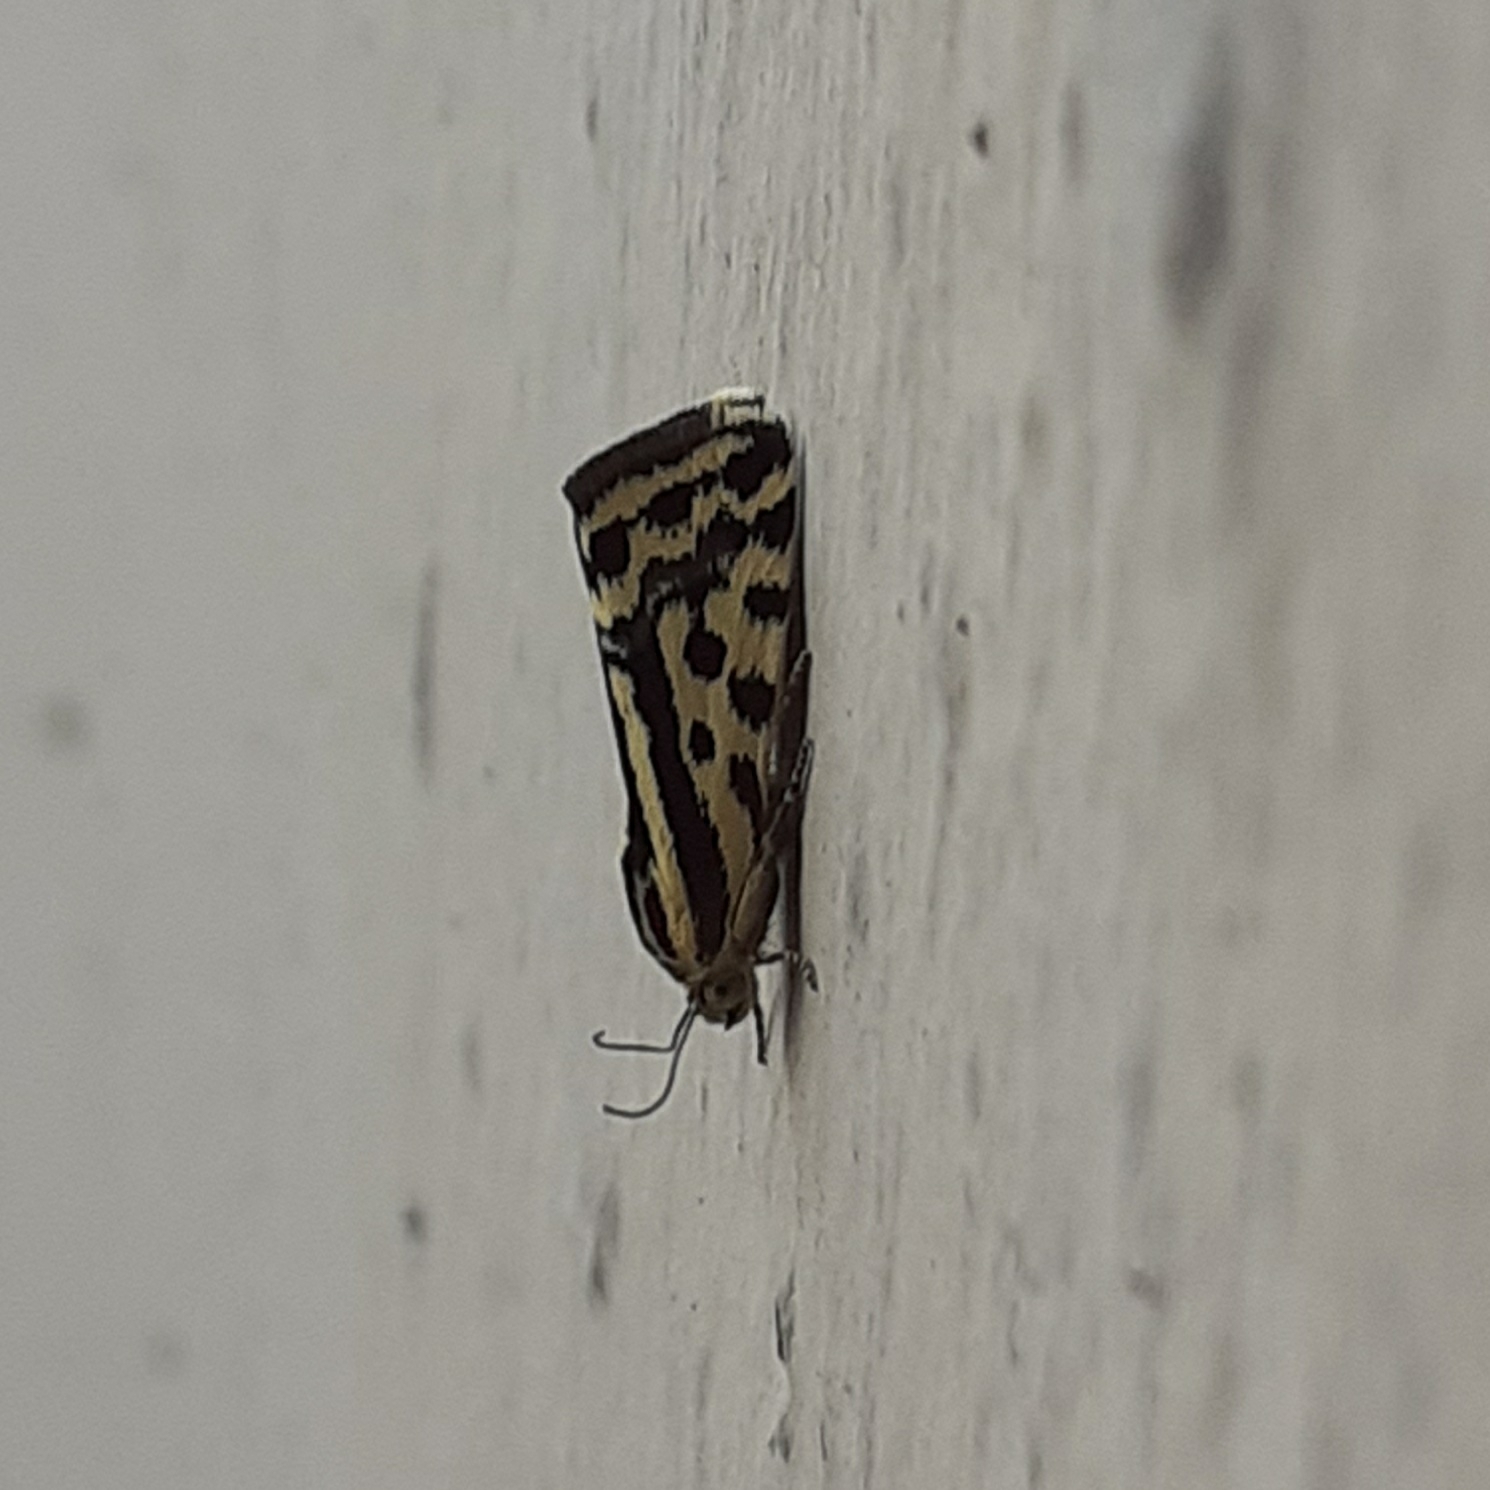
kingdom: Animalia
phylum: Arthropoda
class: Insecta
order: Lepidoptera
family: Noctuidae
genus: Acontia
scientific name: Acontia trabealis
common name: Spotted sulphur
